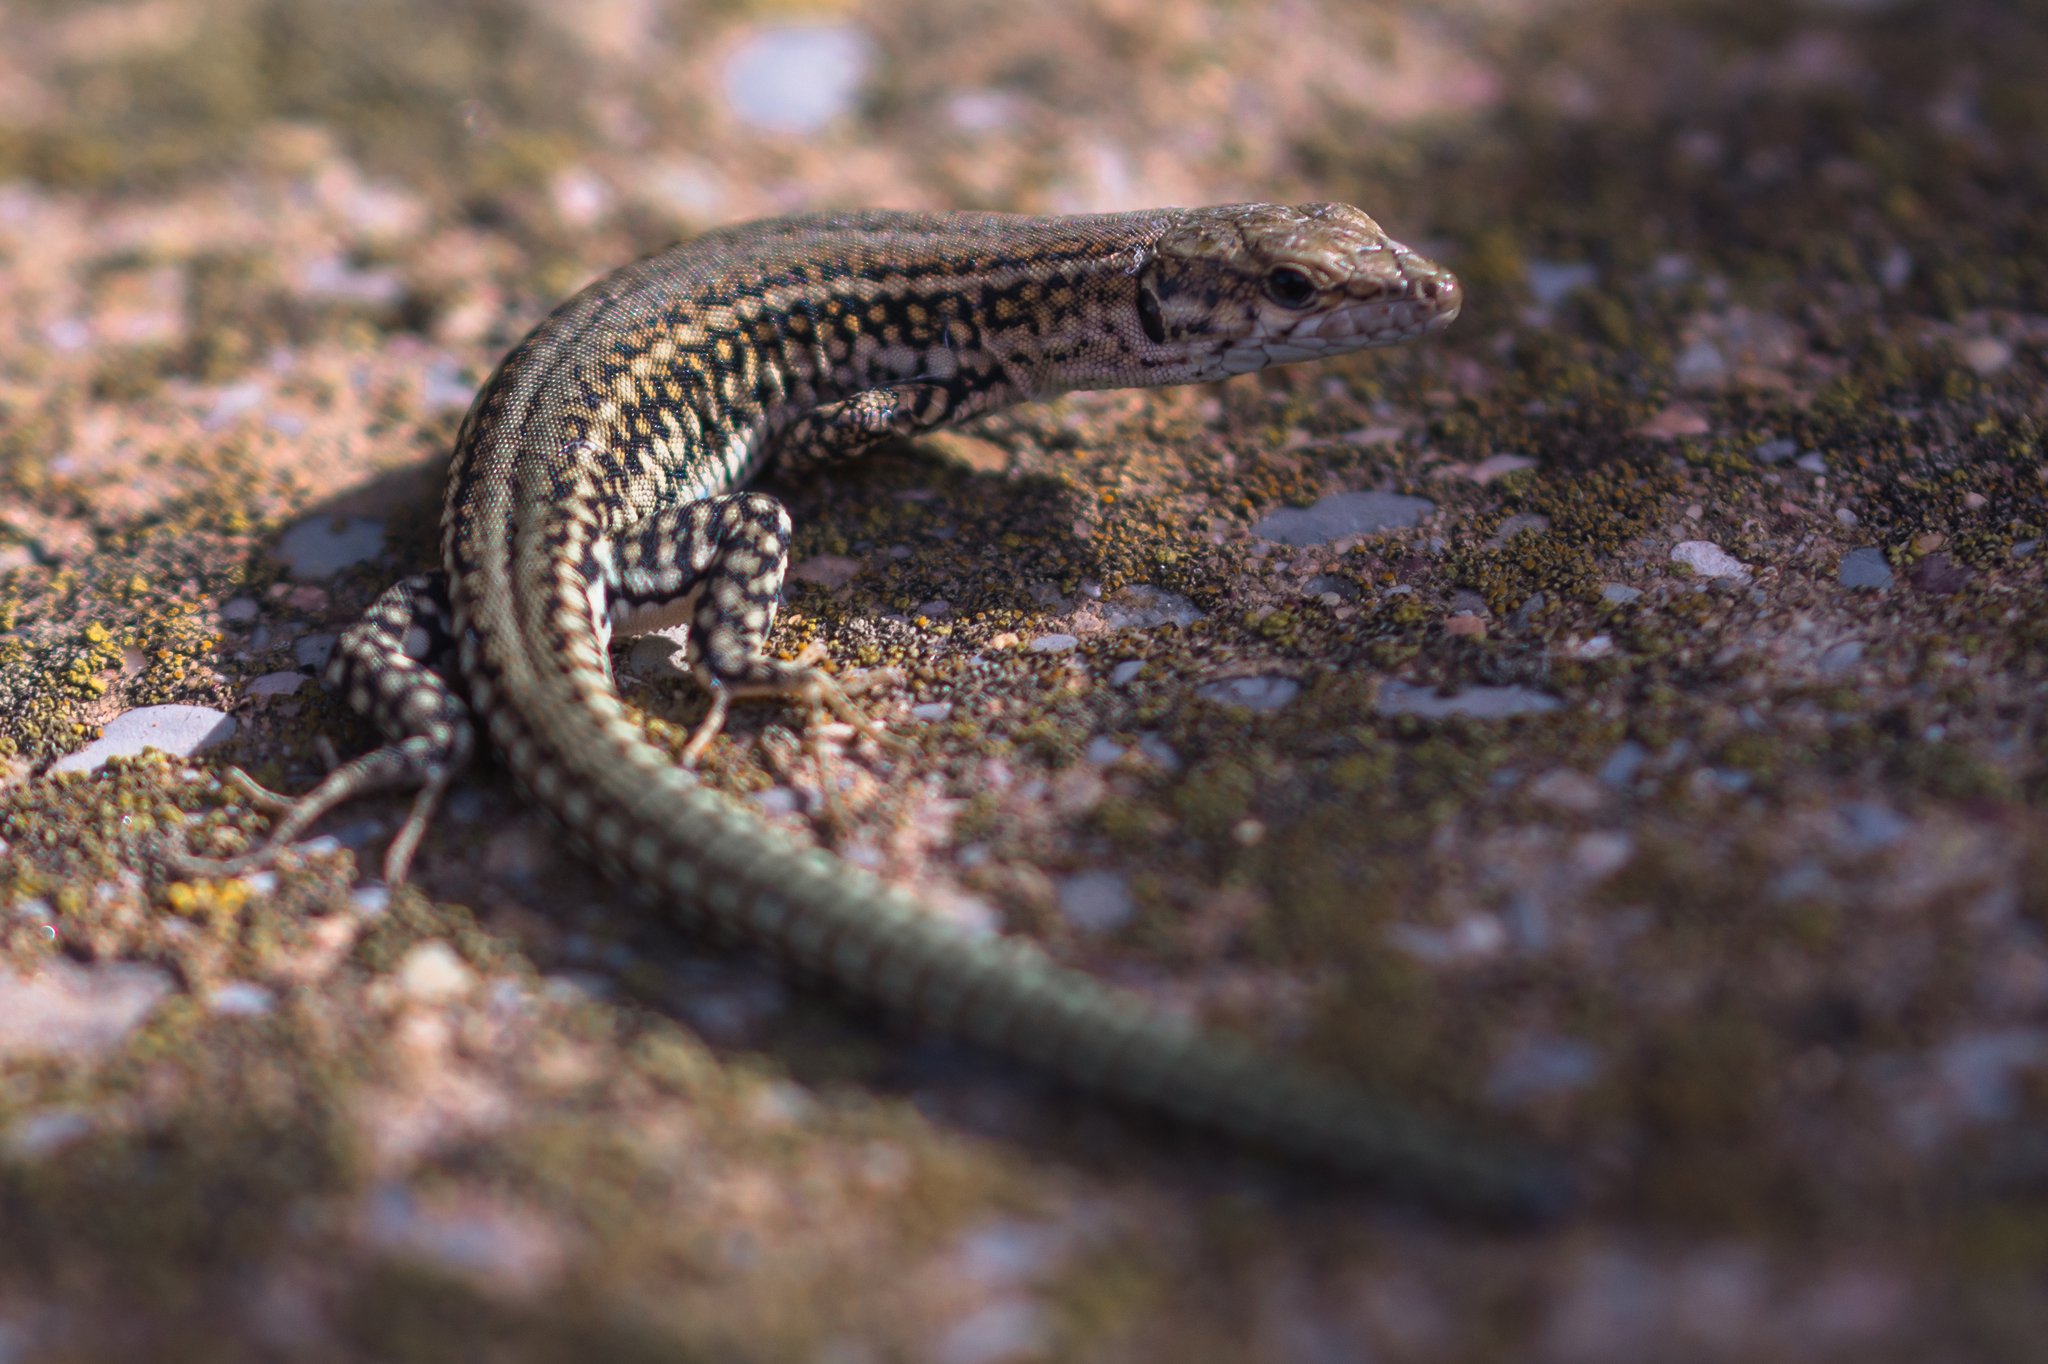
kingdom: Animalia
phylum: Chordata
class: Squamata
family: Lacertidae
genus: Podarcis
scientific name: Podarcis liolepis
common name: Catalonian wall lizard
